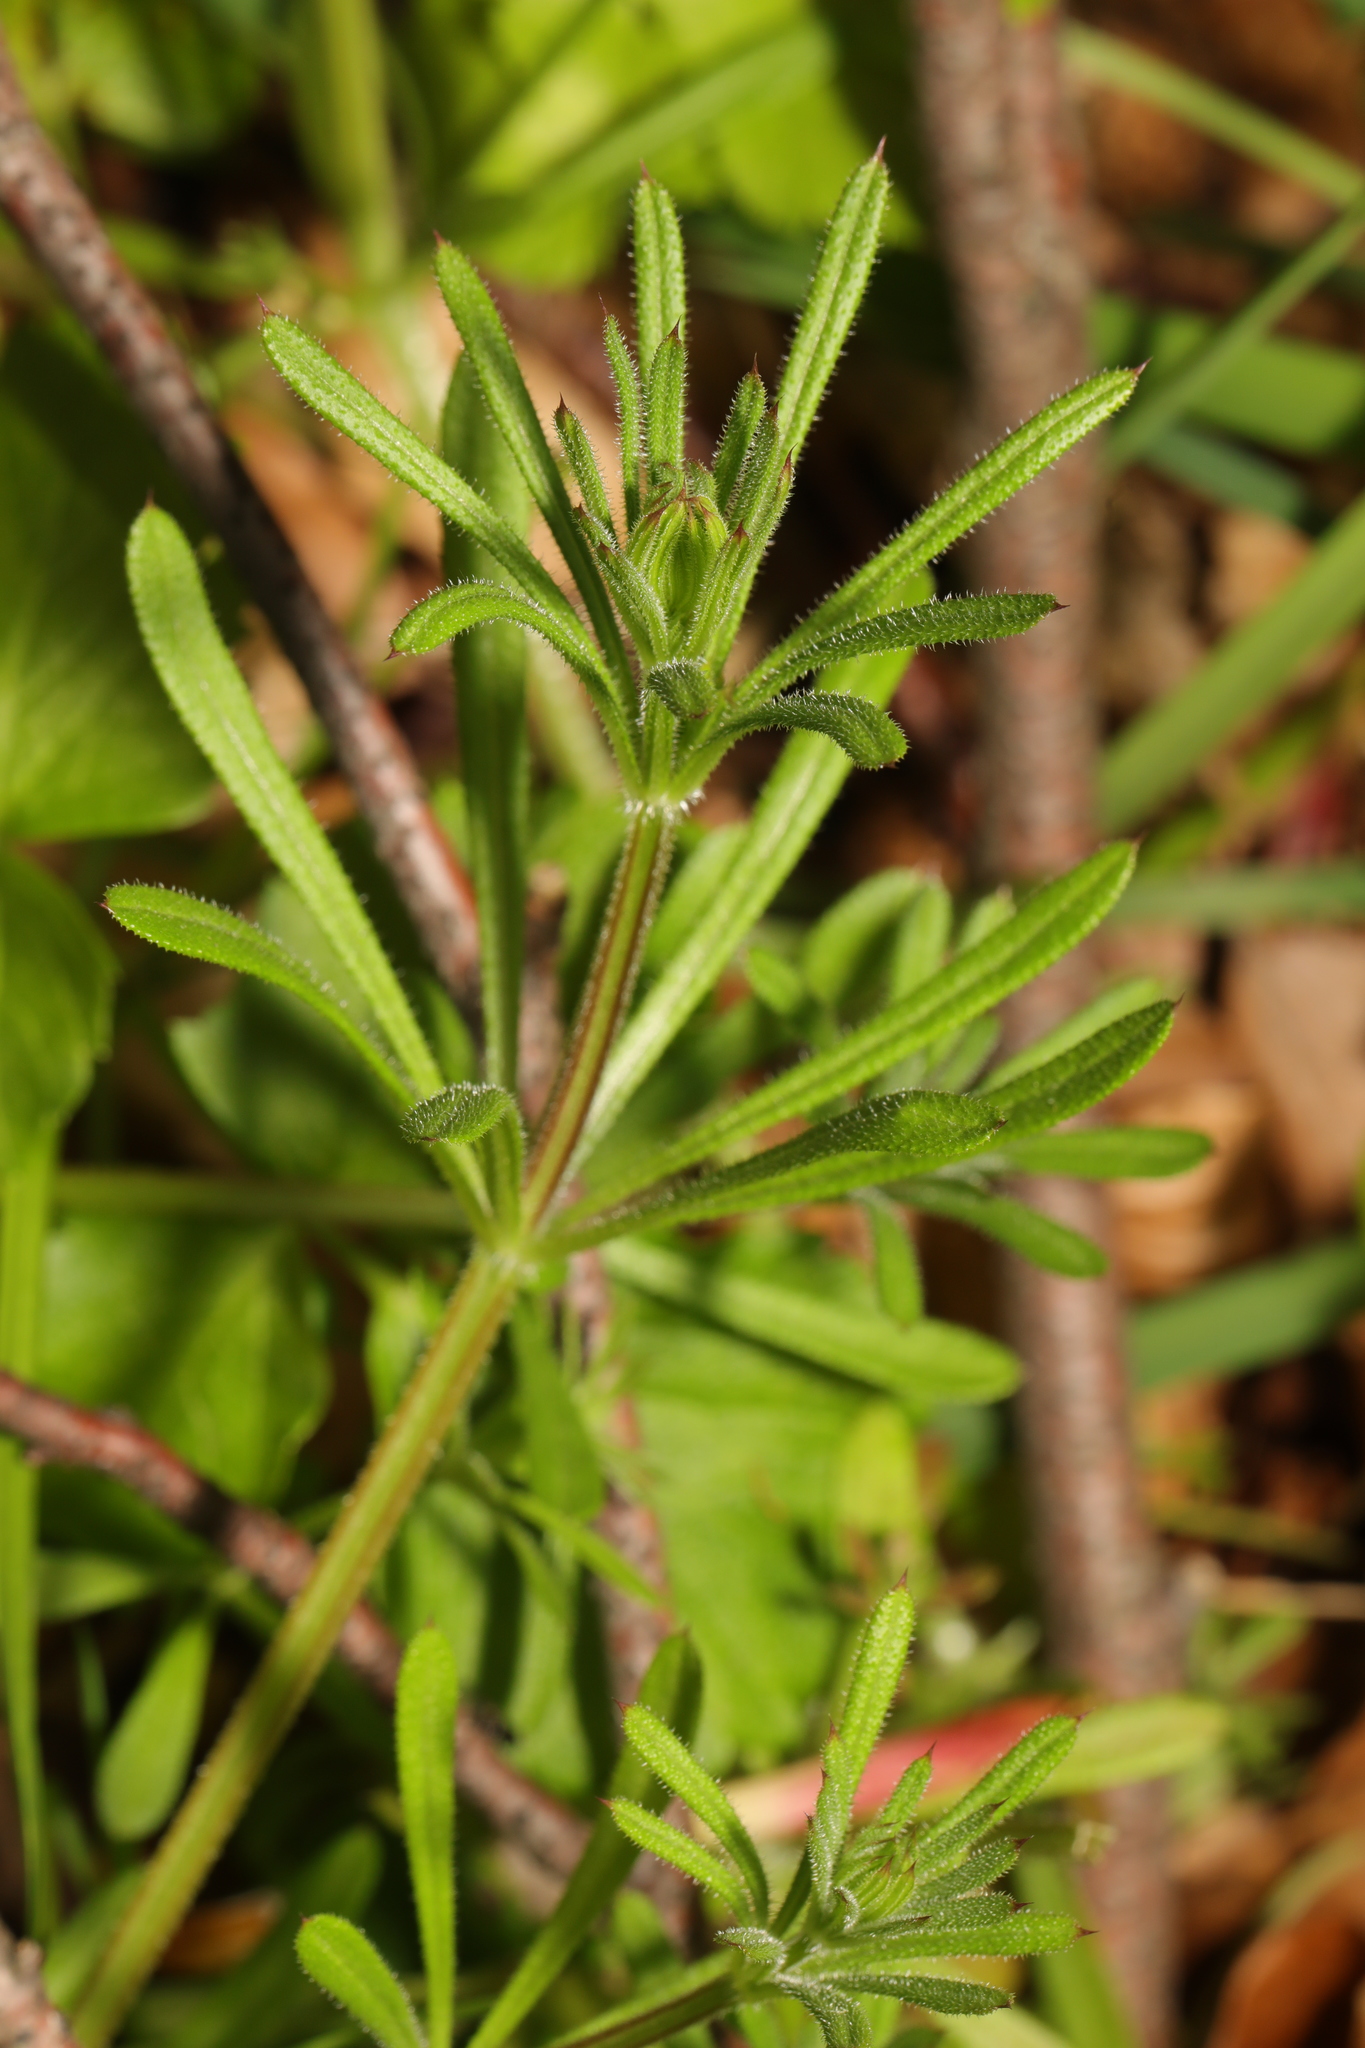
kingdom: Plantae
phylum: Tracheophyta
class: Magnoliopsida
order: Gentianales
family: Rubiaceae
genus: Galium
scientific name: Galium aparine
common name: Cleavers
